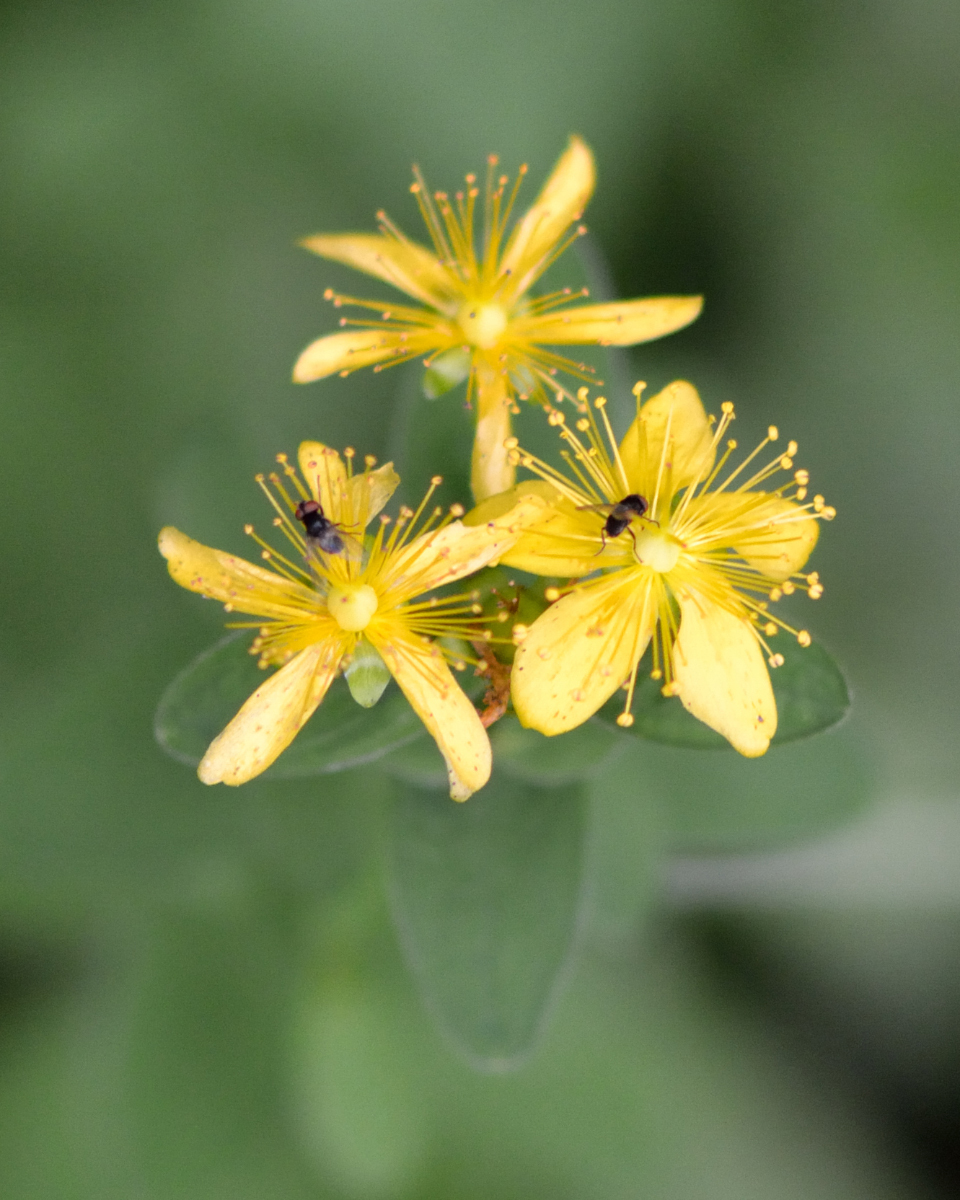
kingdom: Plantae
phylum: Tracheophyta
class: Magnoliopsida
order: Malpighiales
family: Hypericaceae
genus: Hypericum
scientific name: Hypericum maculatum
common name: Imperforate st. john's-wort
